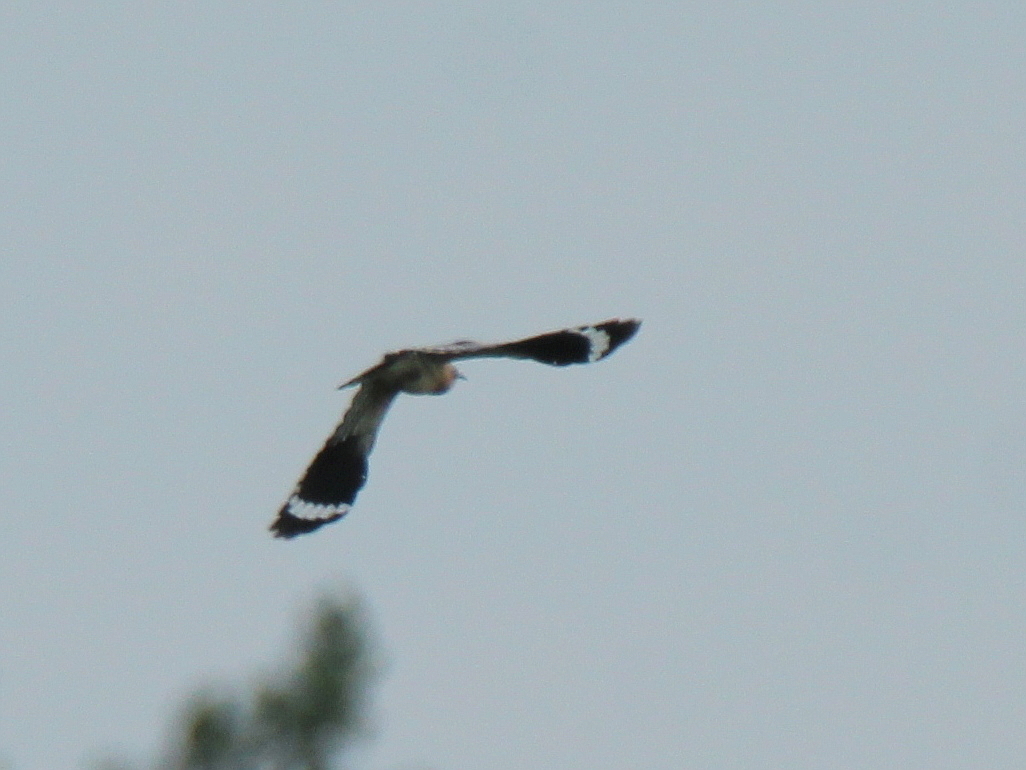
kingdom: Animalia
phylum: Chordata
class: Aves
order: Bucerotiformes
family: Upupidae
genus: Upupa
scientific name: Upupa epops
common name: Eurasian hoopoe
